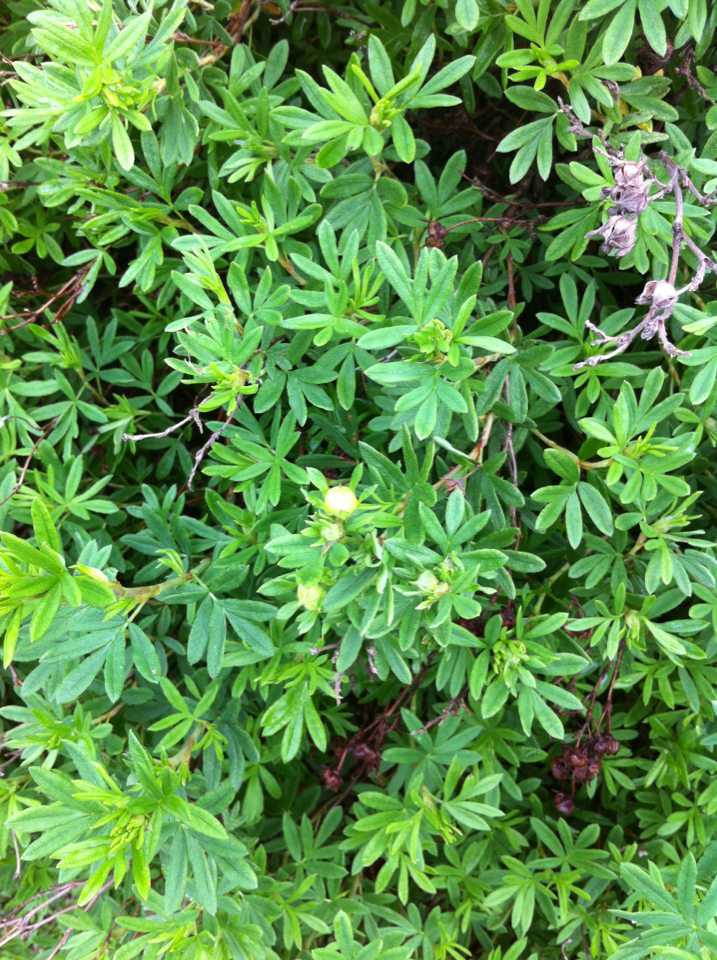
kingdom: Plantae
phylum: Tracheophyta
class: Magnoliopsida
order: Rosales
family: Rosaceae
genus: Dasiphora
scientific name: Dasiphora fruticosa
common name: Shrubby cinquefoil
